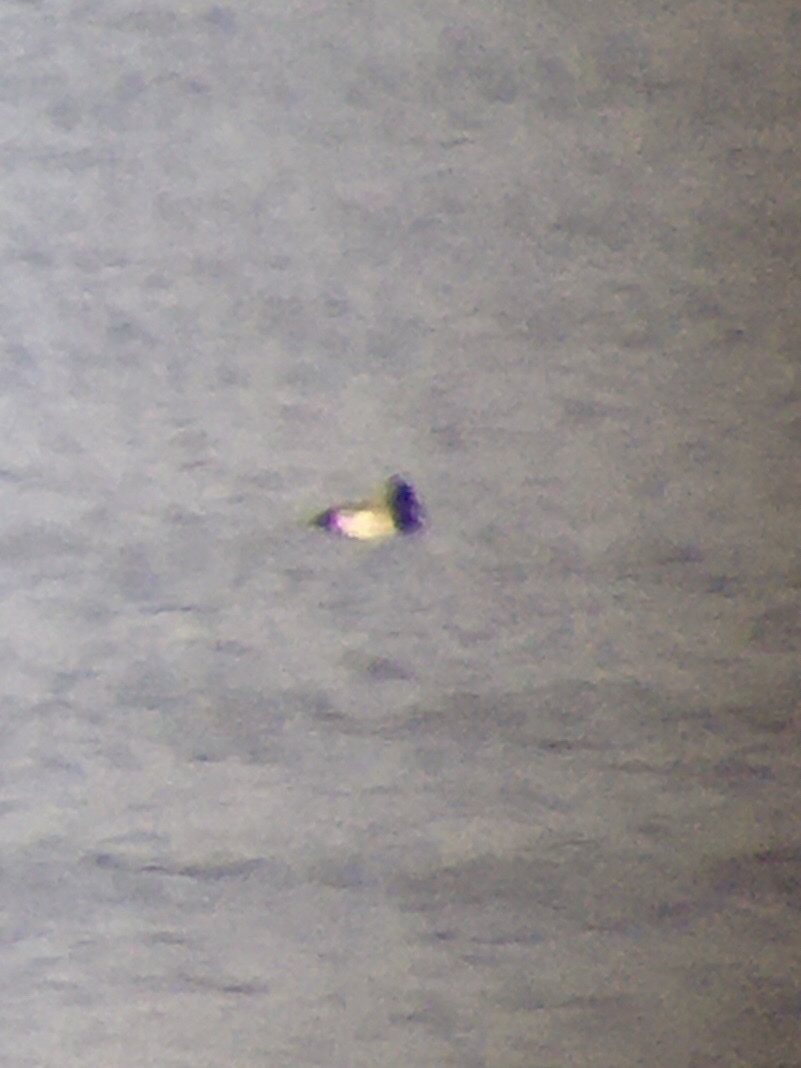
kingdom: Animalia
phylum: Chordata
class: Aves
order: Anseriformes
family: Anatidae
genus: Aythya
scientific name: Aythya affinis
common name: Lesser scaup
